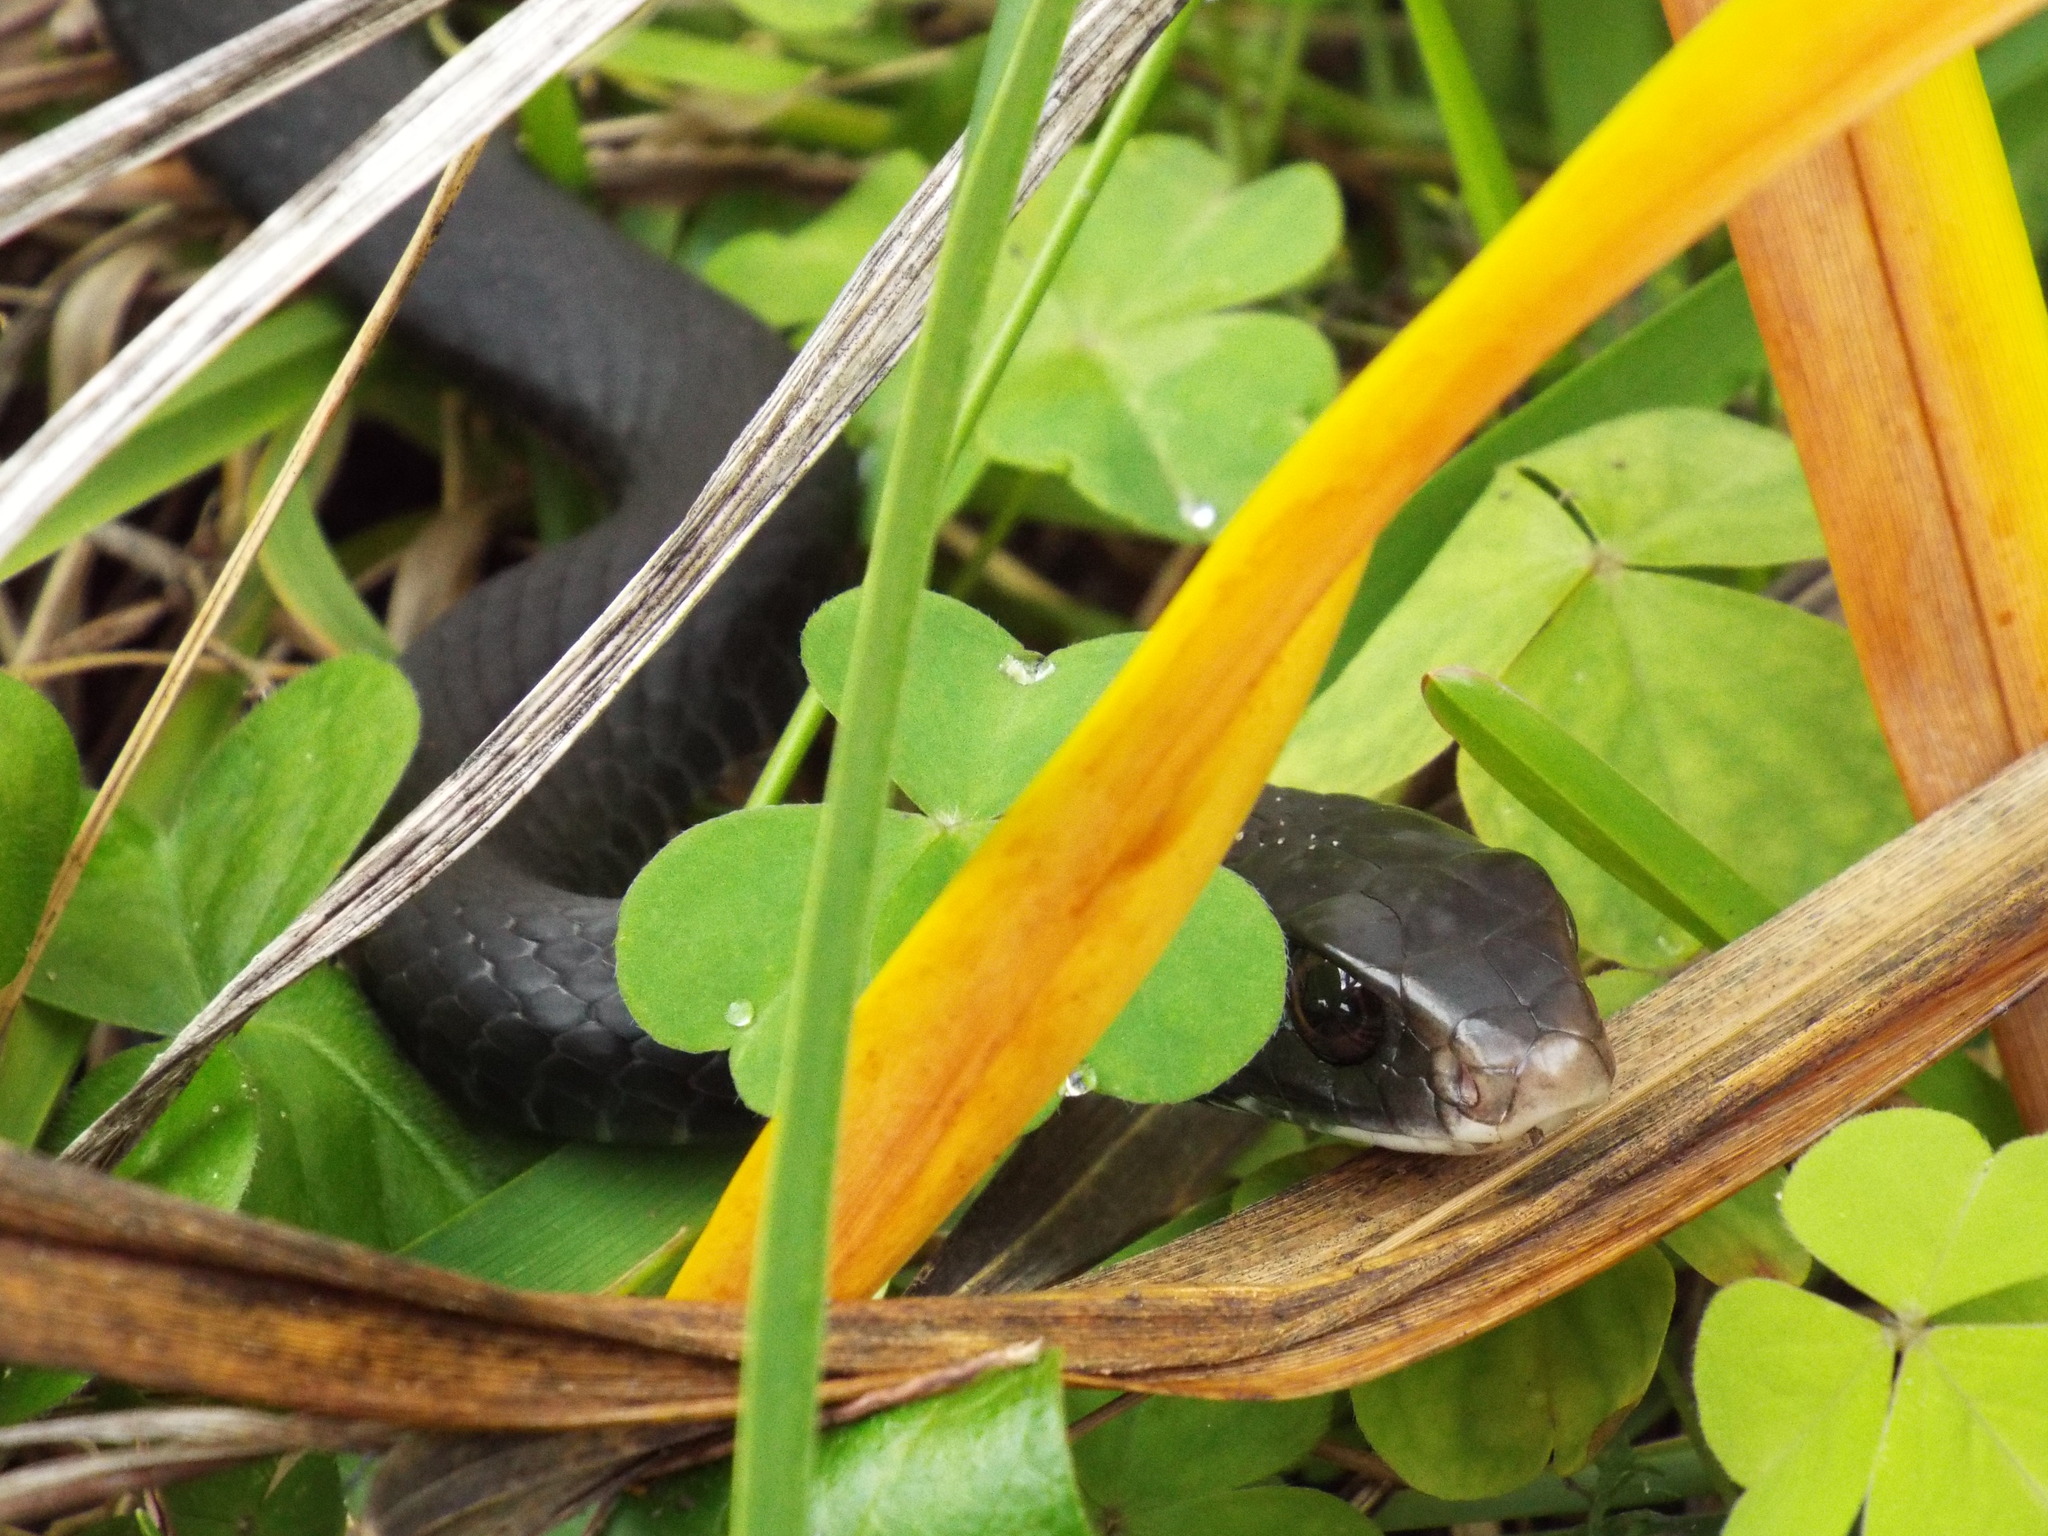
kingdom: Animalia
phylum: Chordata
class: Squamata
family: Colubridae
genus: Coluber
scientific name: Coluber constrictor
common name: Eastern racer
